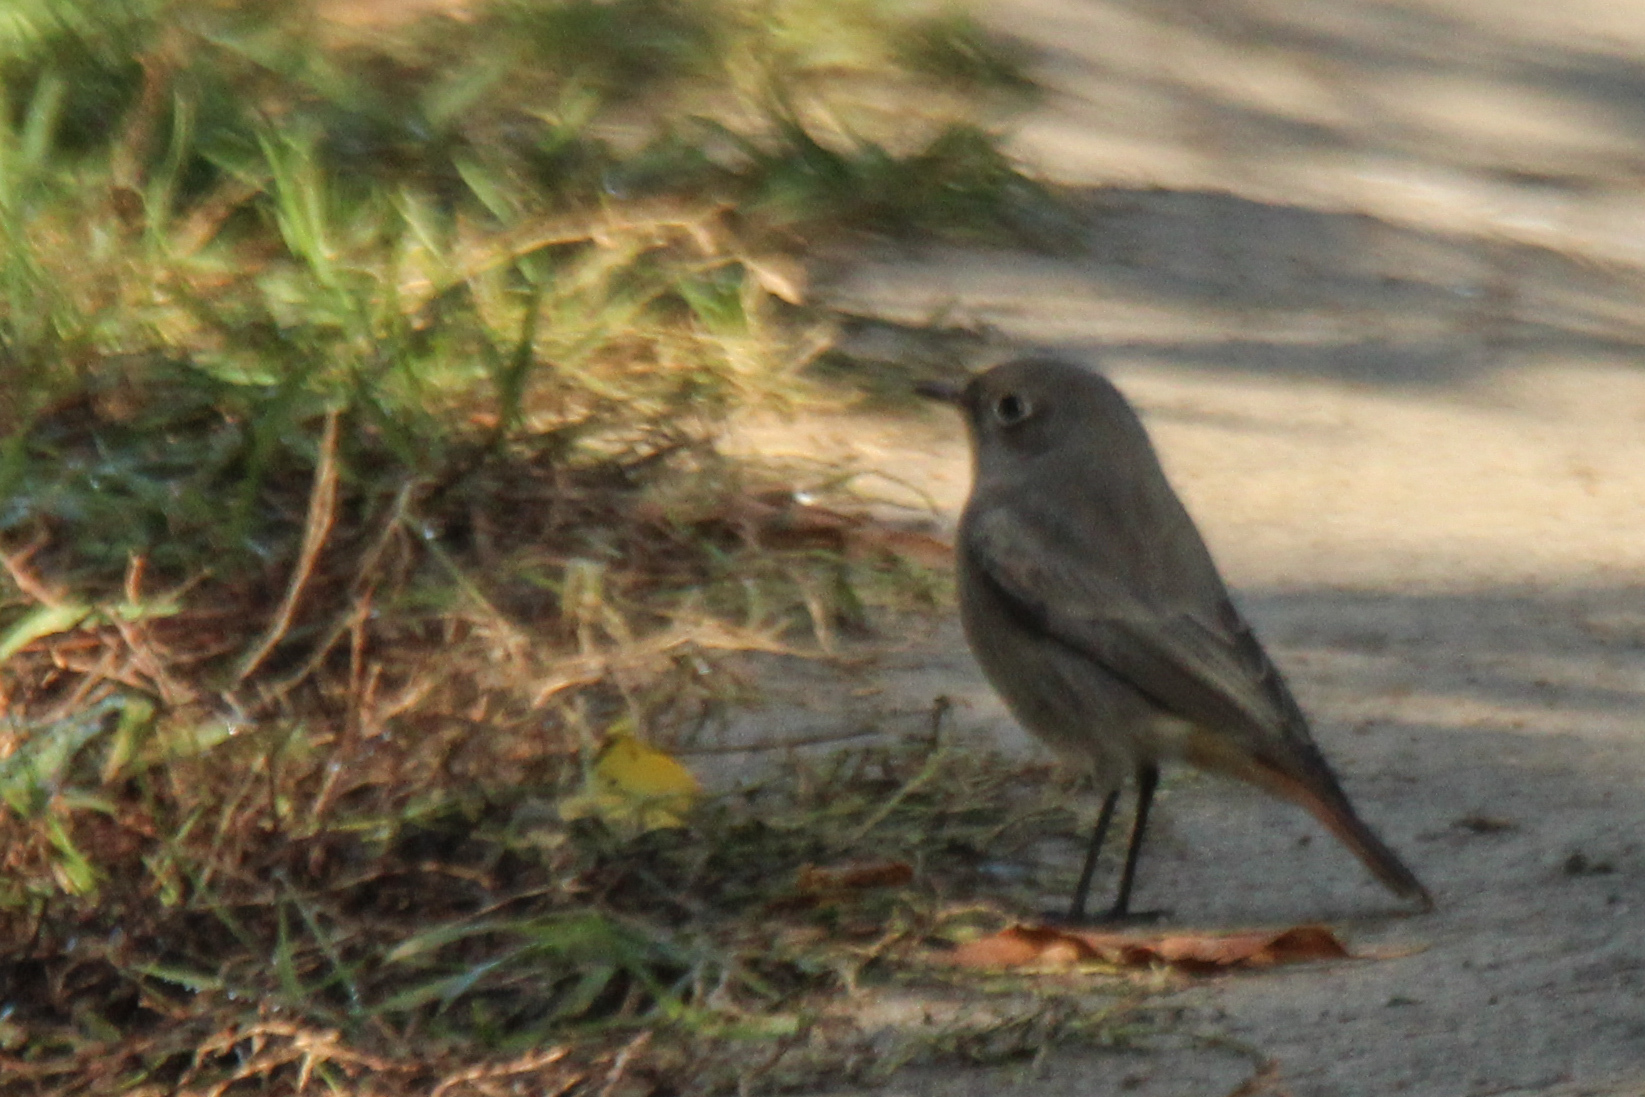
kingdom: Animalia
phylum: Chordata
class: Aves
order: Passeriformes
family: Muscicapidae
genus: Phoenicurus
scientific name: Phoenicurus ochruros
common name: Black redstart
